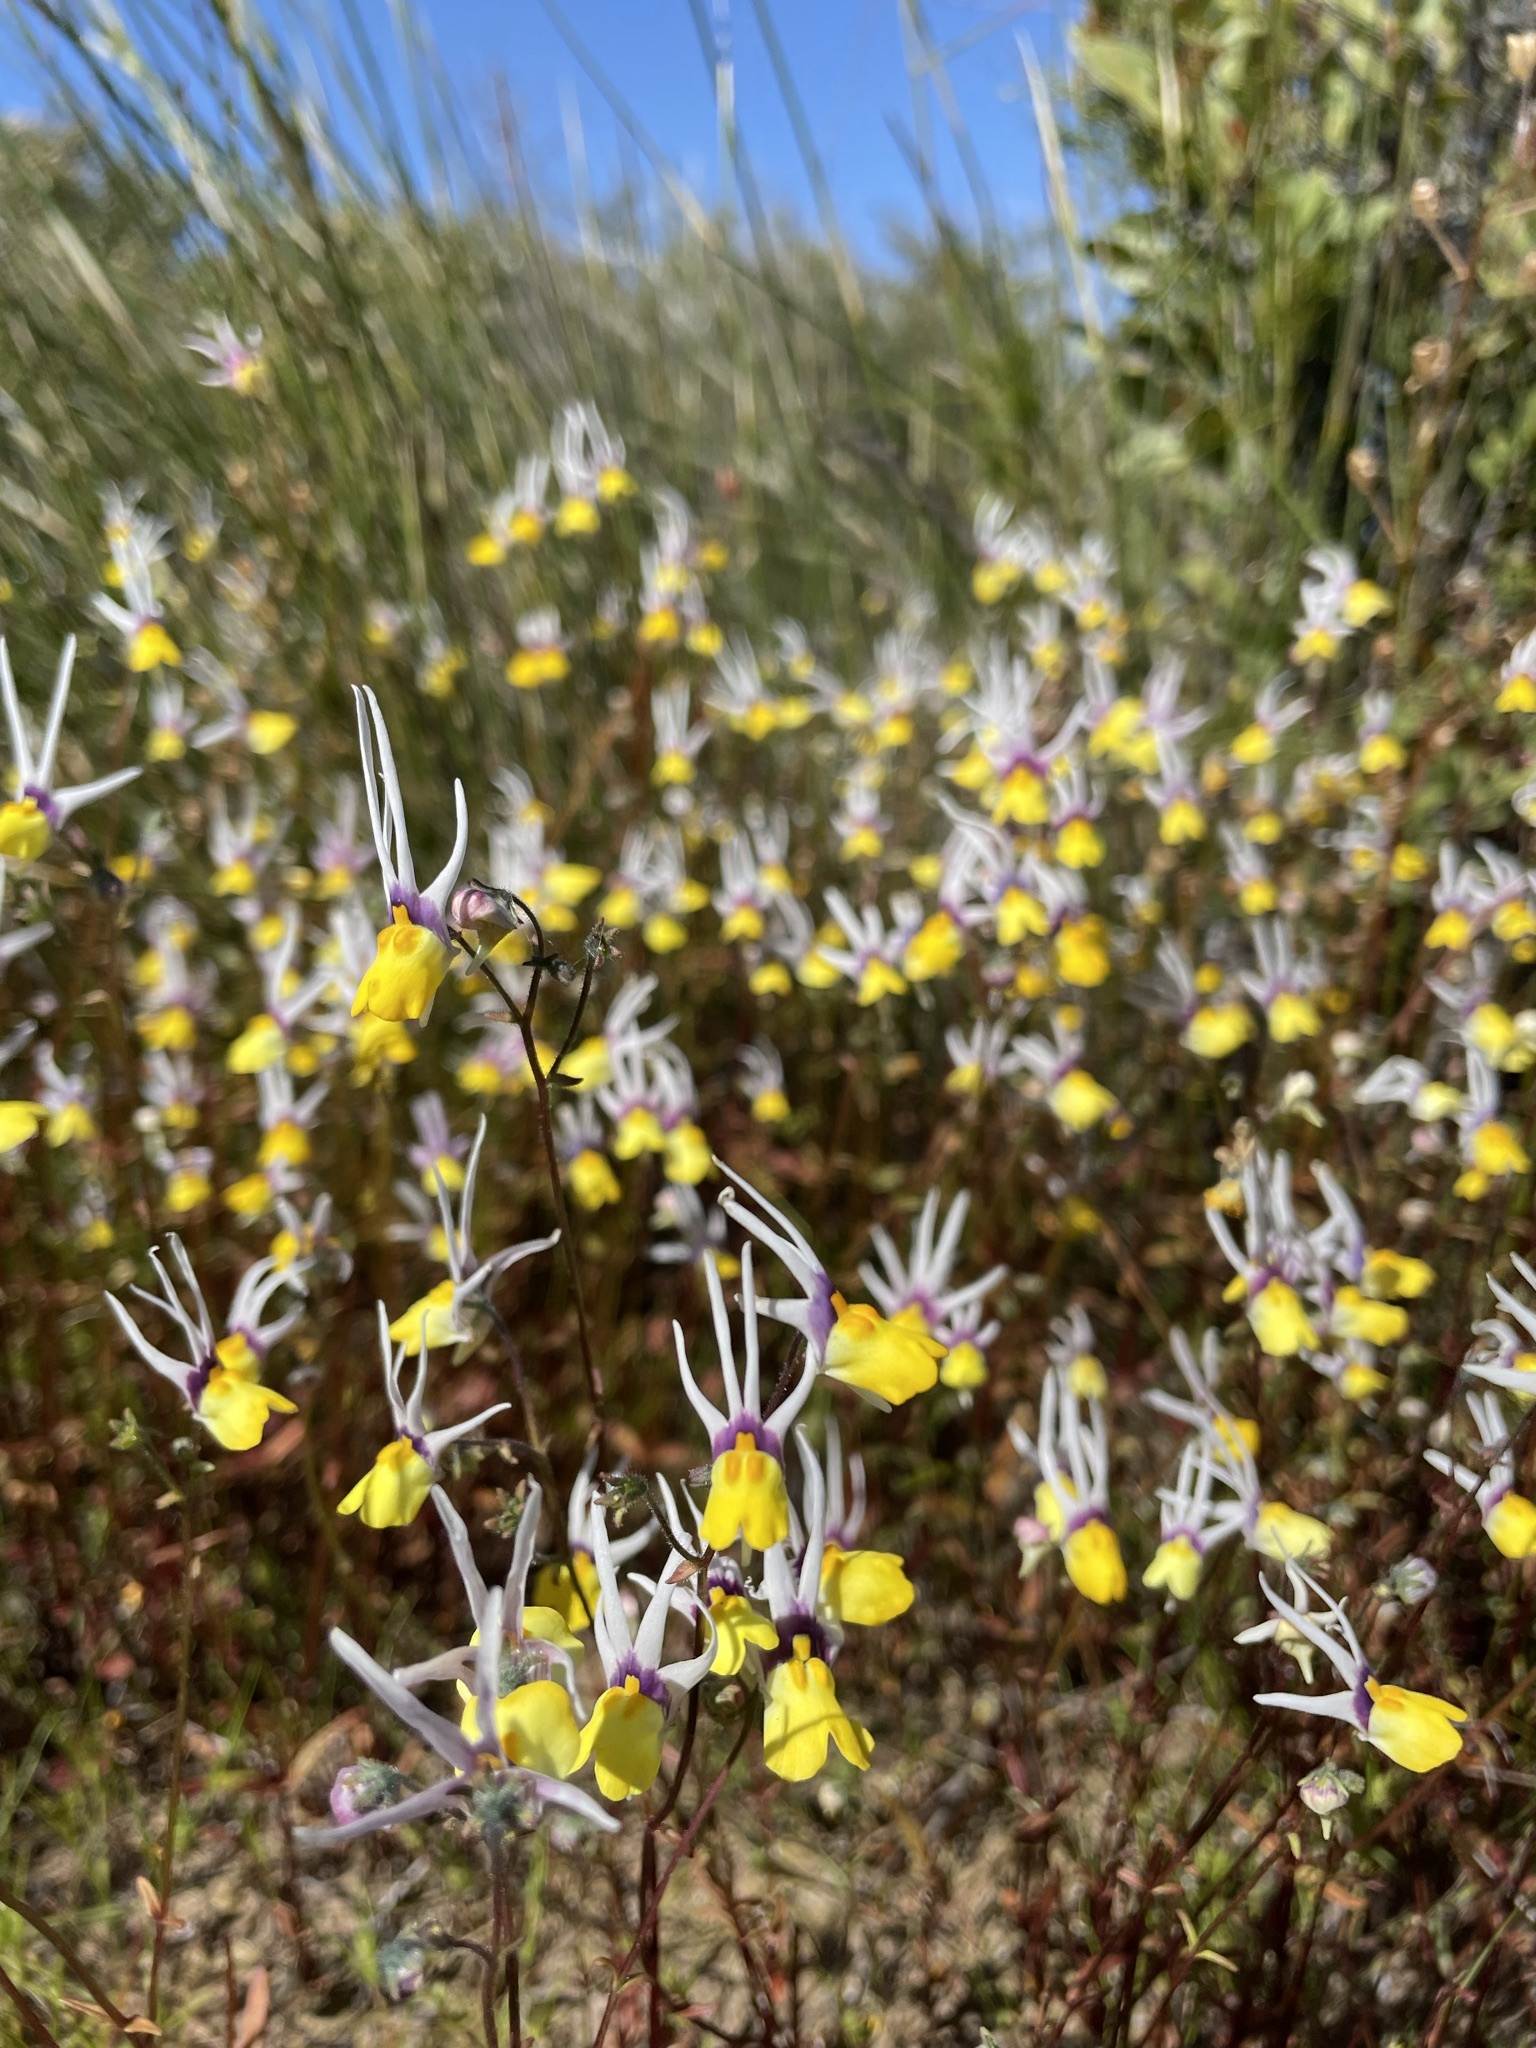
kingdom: Plantae
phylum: Tracheophyta
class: Magnoliopsida
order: Lamiales
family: Scrophulariaceae
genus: Nemesia
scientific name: Nemesia cheiranthus
